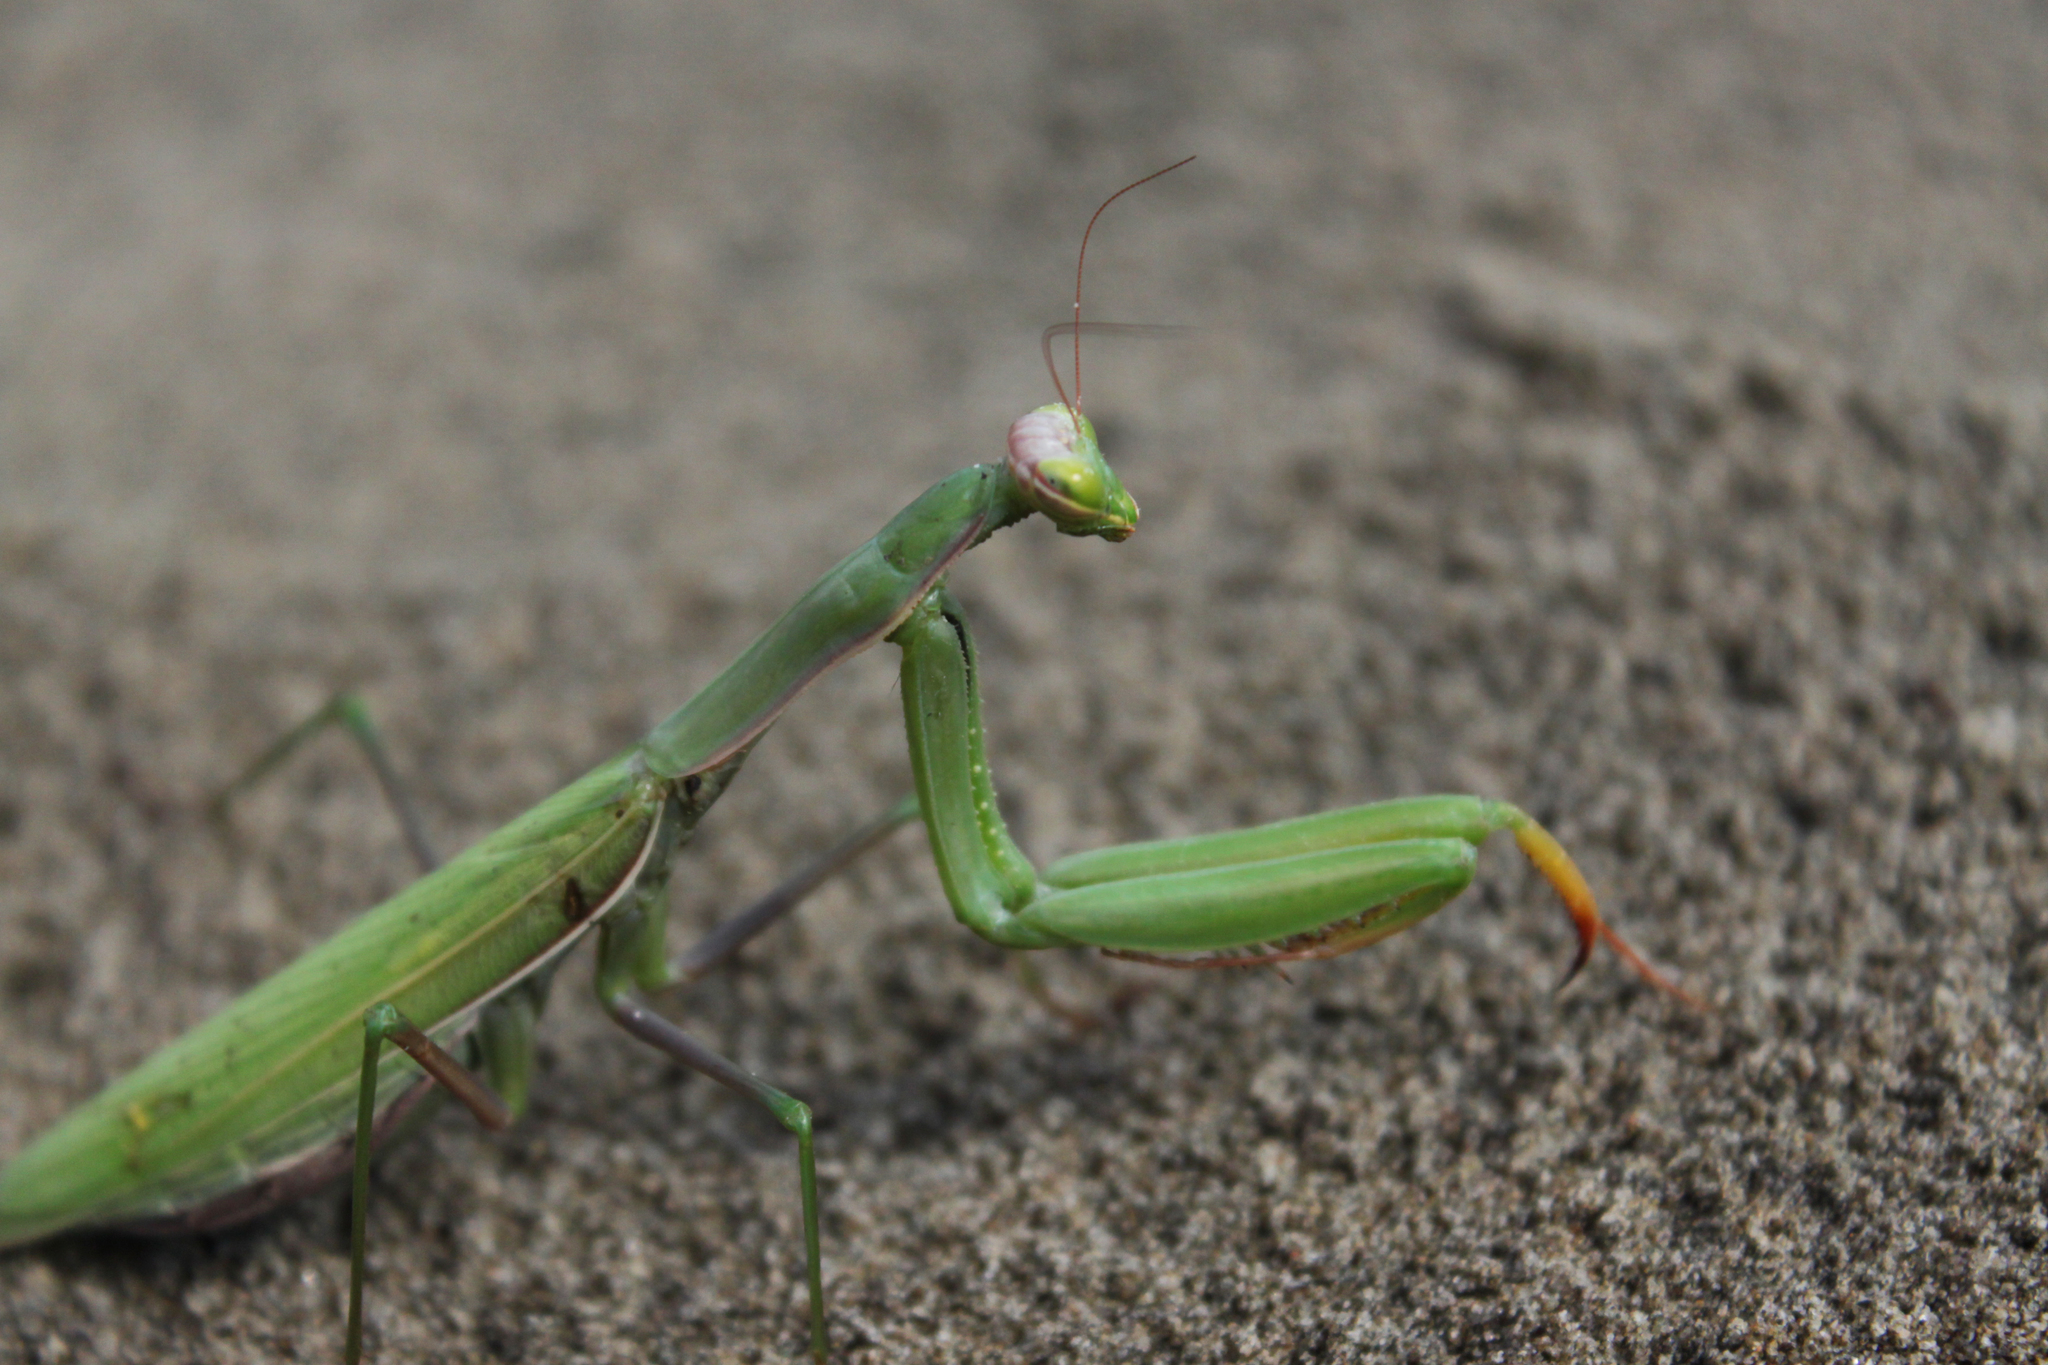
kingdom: Animalia
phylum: Arthropoda
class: Insecta
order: Mantodea
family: Mantidae
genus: Mantis
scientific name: Mantis religiosa
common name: Praying mantis
